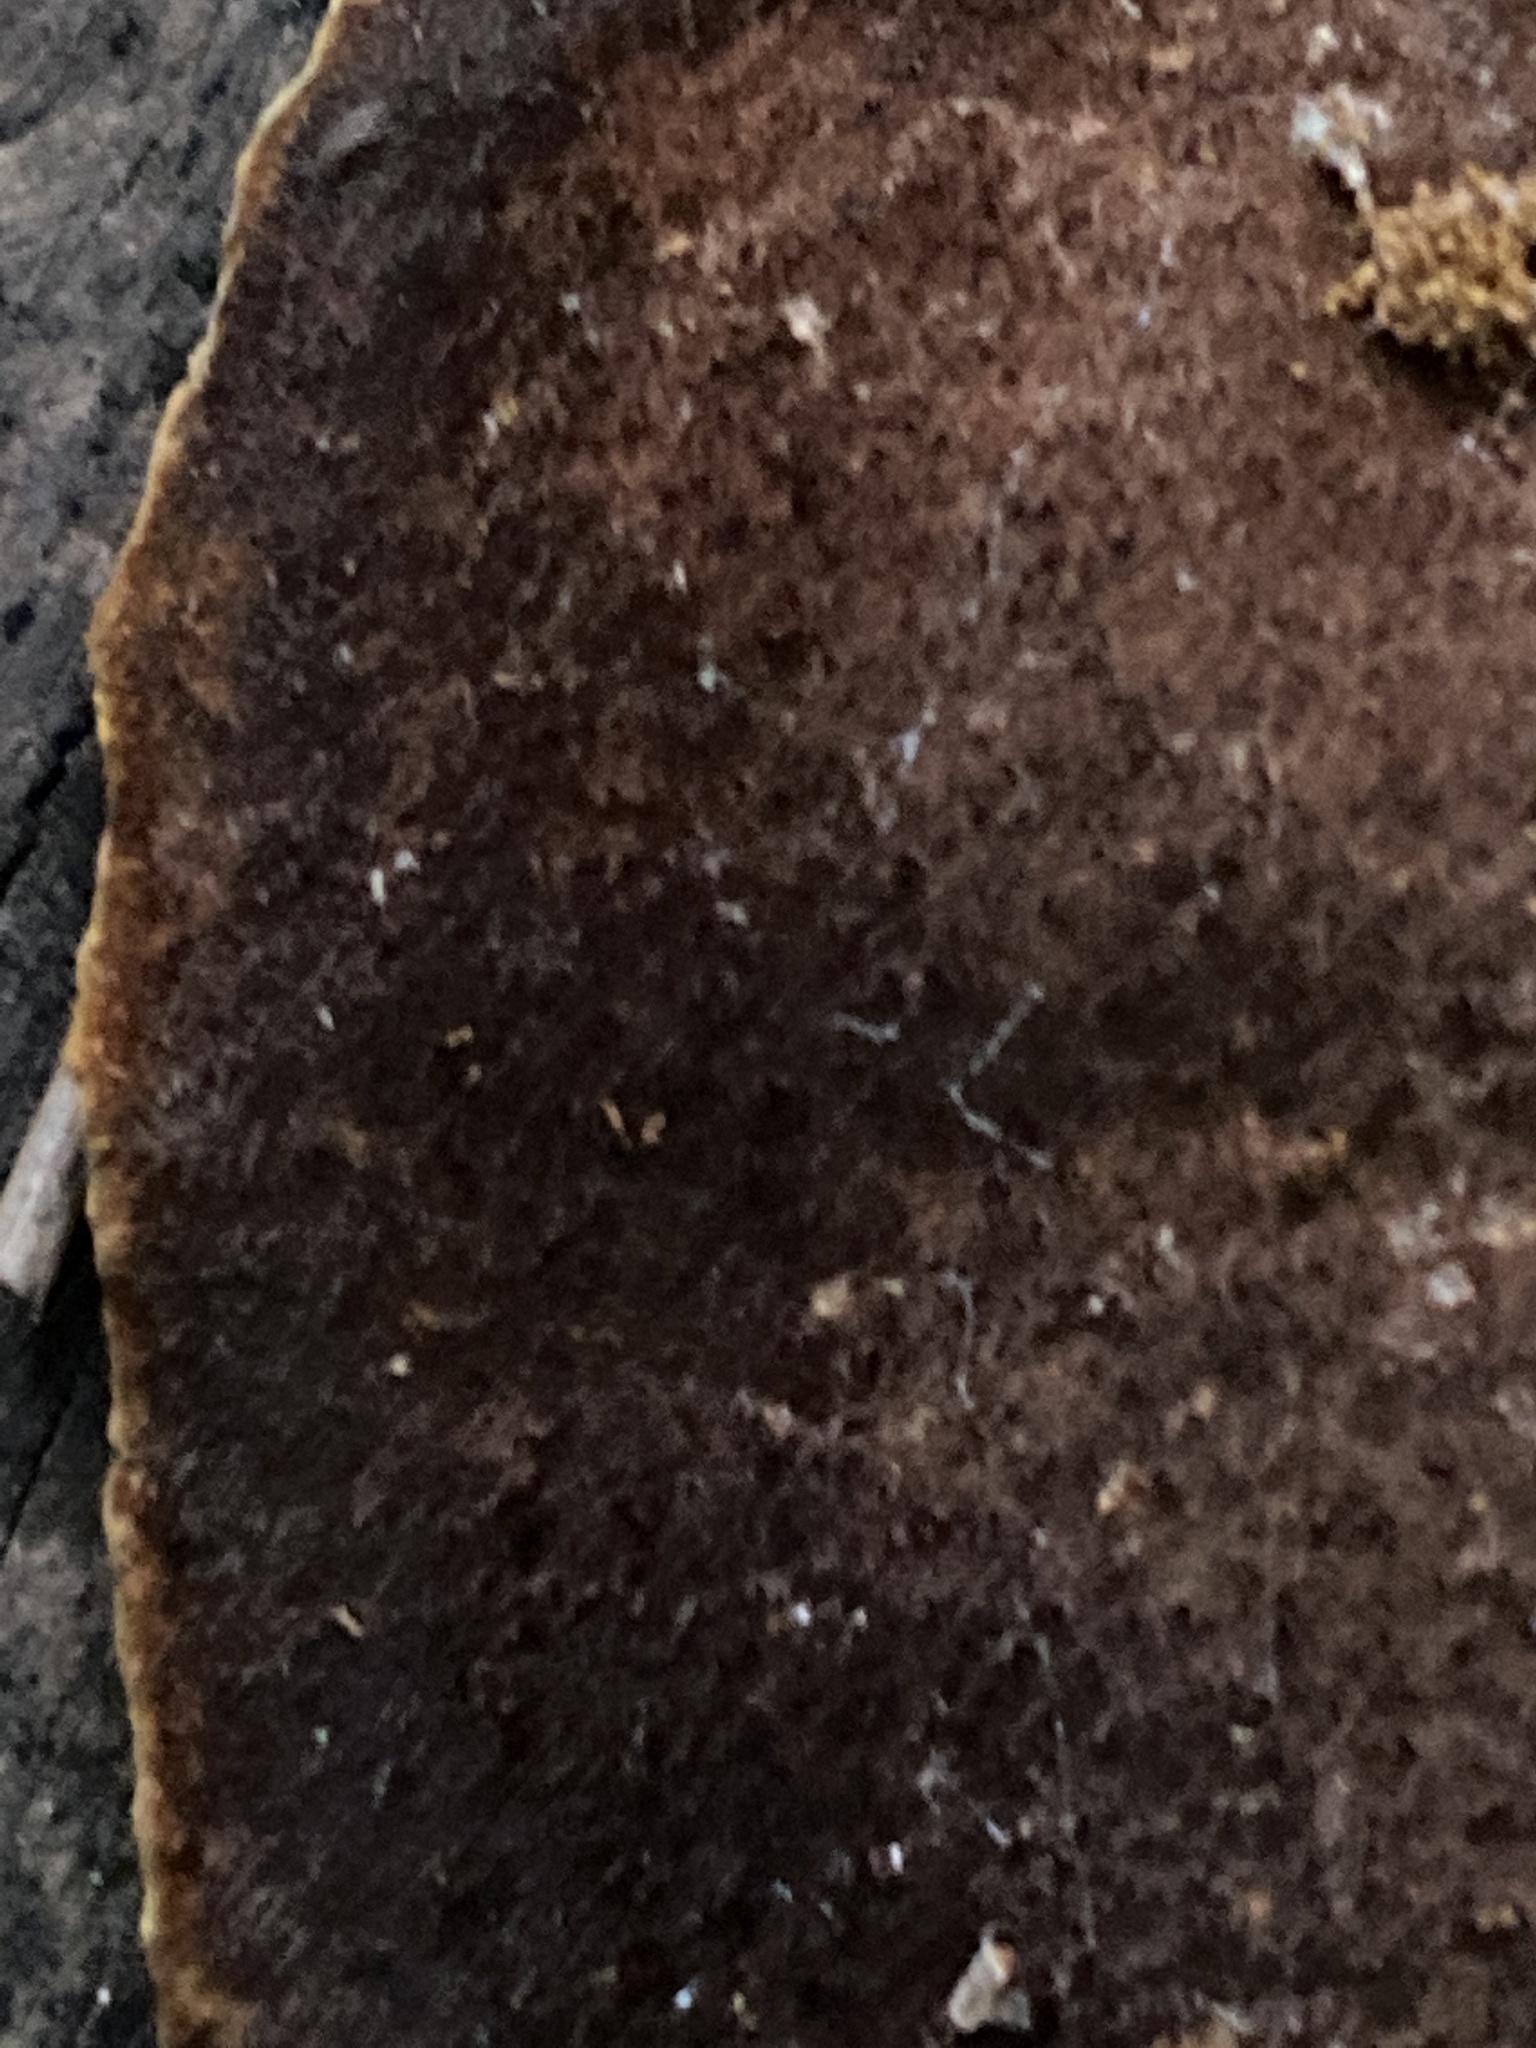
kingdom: Fungi
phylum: Basidiomycota
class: Agaricomycetes
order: Hymenochaetales
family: Hymenochaetaceae
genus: Phellinus
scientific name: Phellinus gilvus
